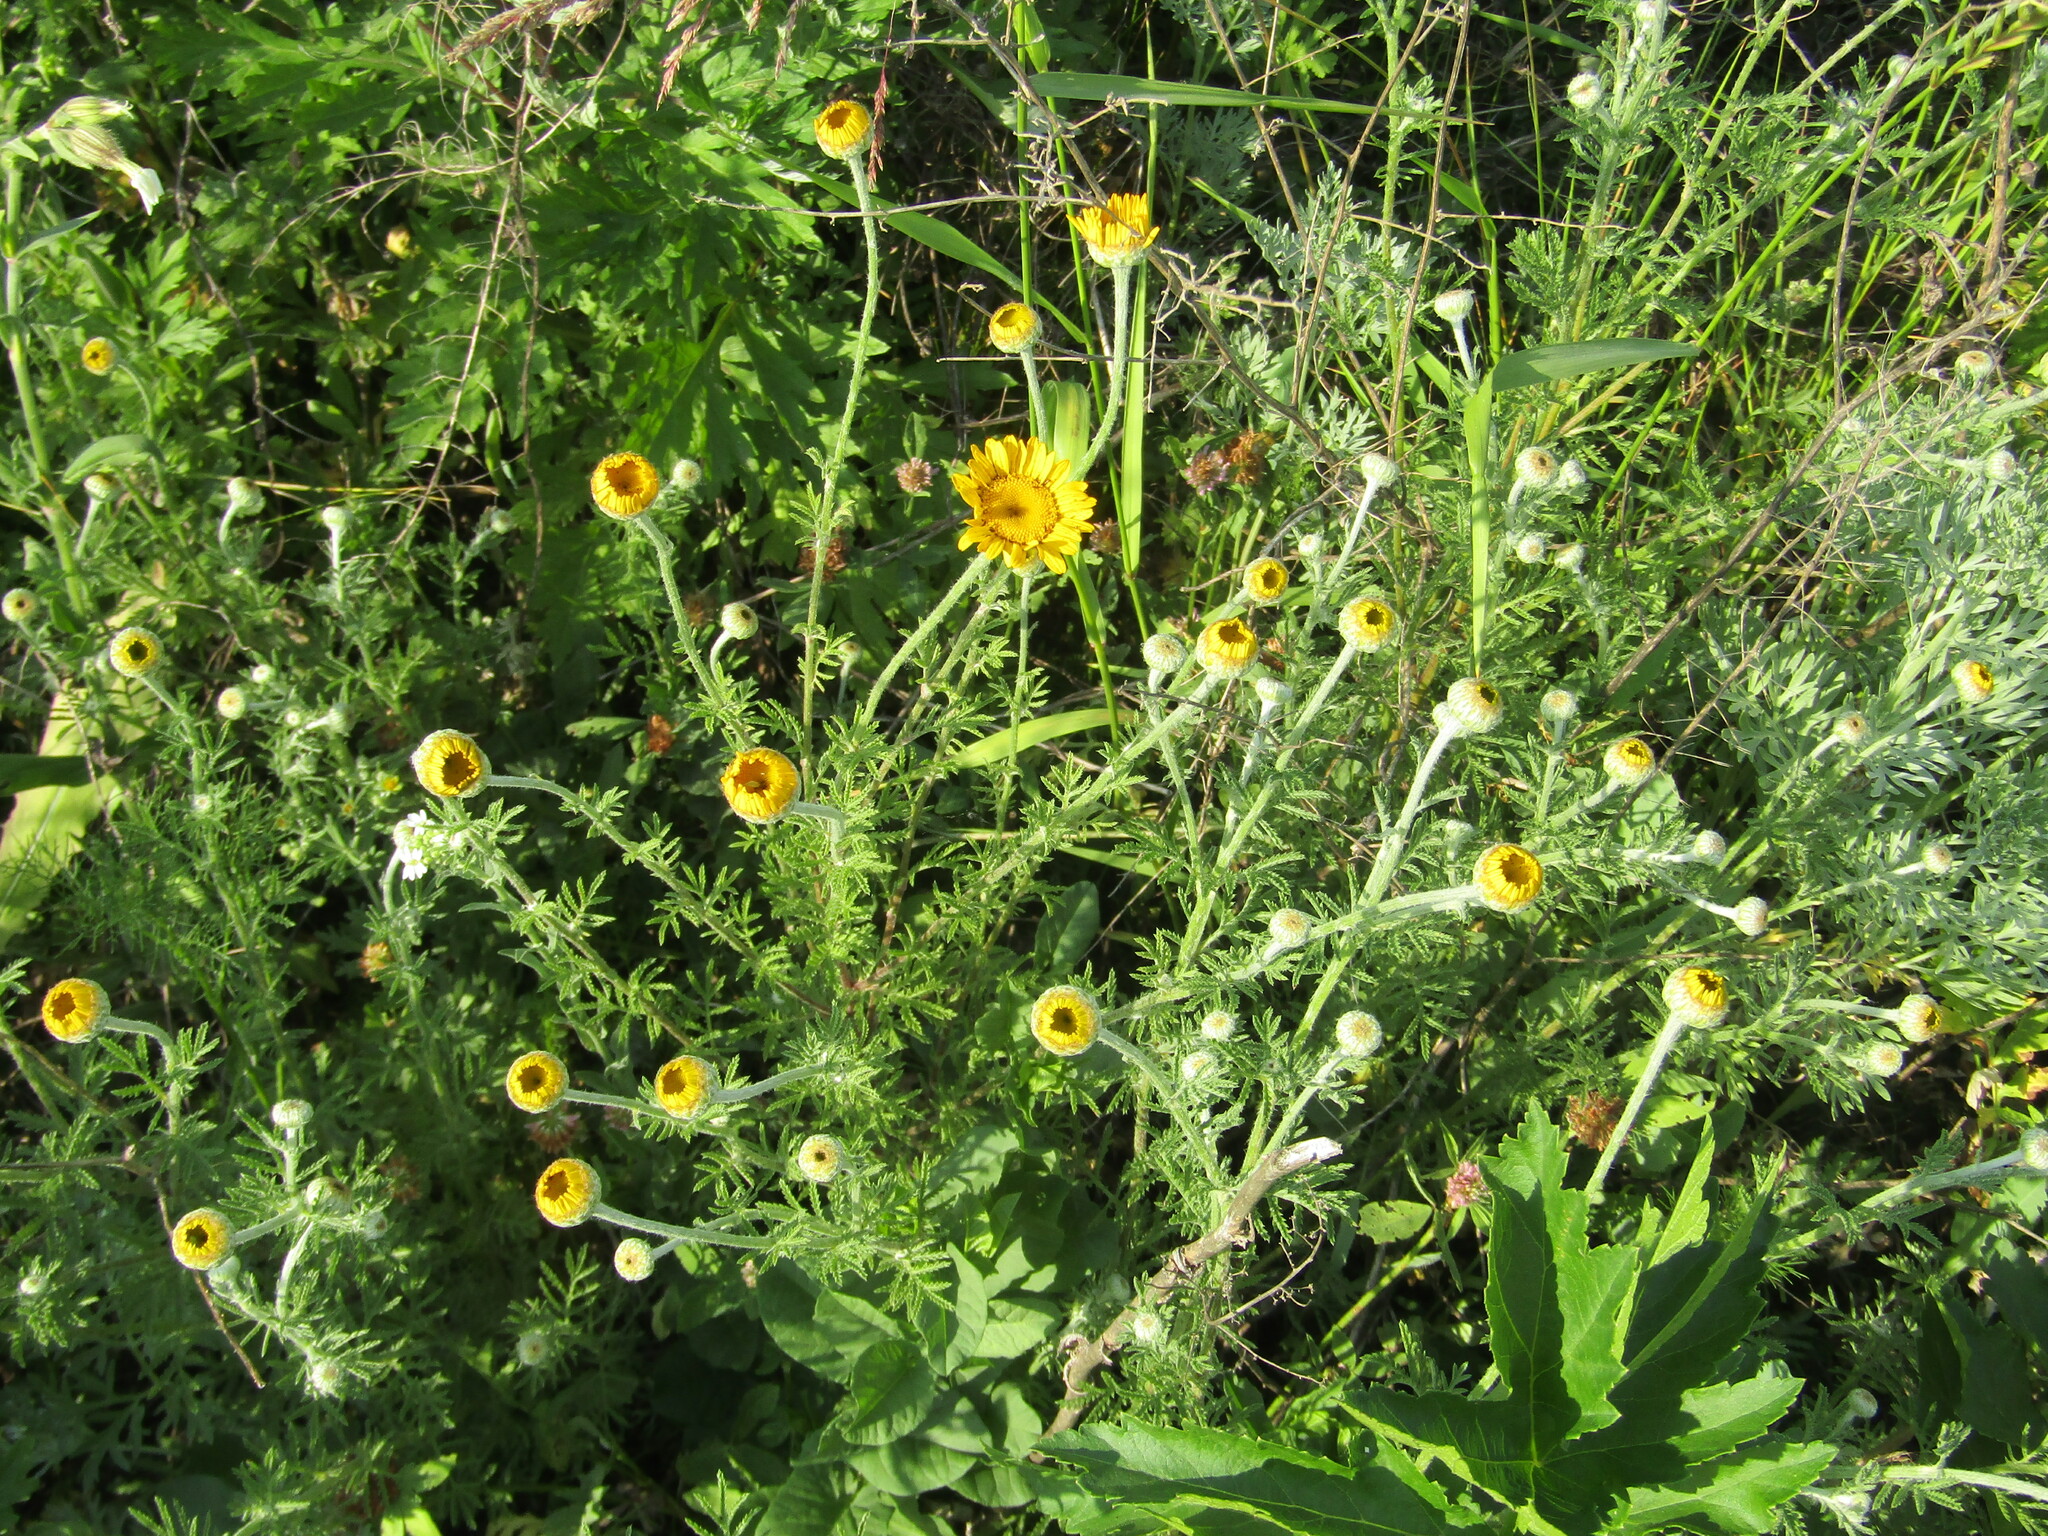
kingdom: Plantae
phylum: Tracheophyta
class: Magnoliopsida
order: Asterales
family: Asteraceae
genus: Cota
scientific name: Cota tinctoria
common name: Golden chamomile
